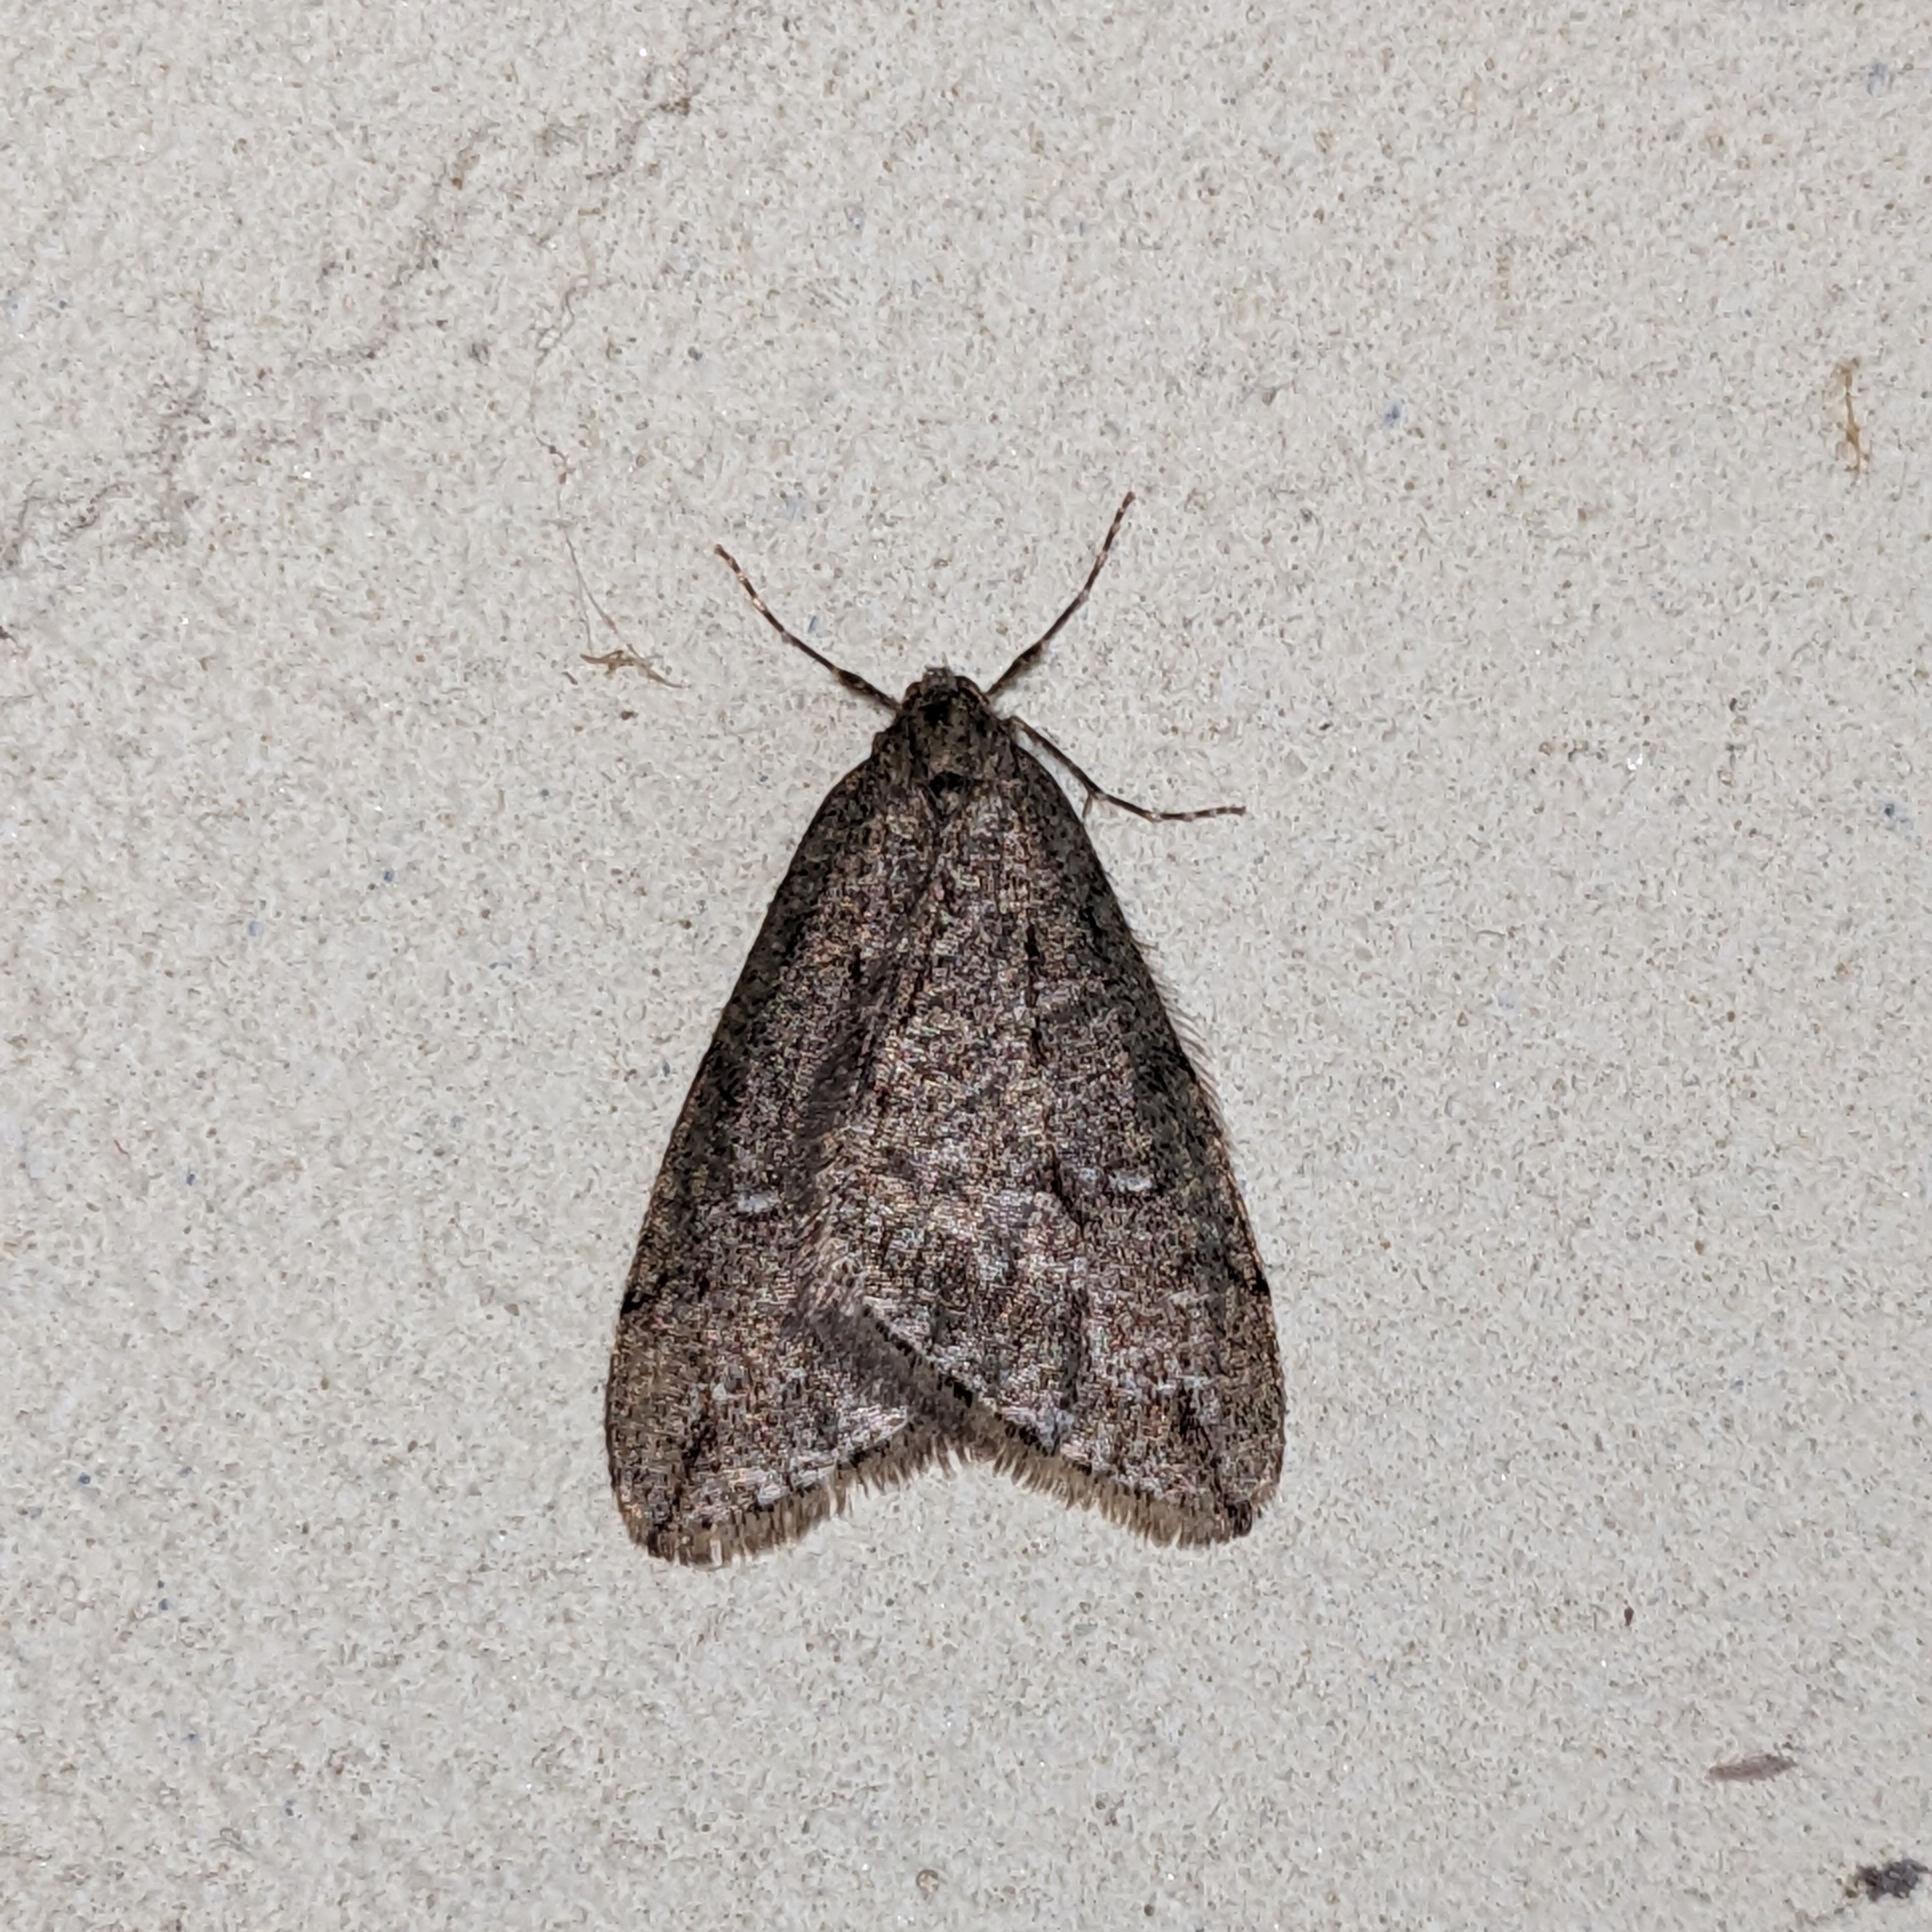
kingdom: Animalia
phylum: Arthropoda
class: Insecta
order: Lepidoptera
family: Geometridae
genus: Paleacrita
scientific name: Paleacrita merriccata
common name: White-spotted canker worm
